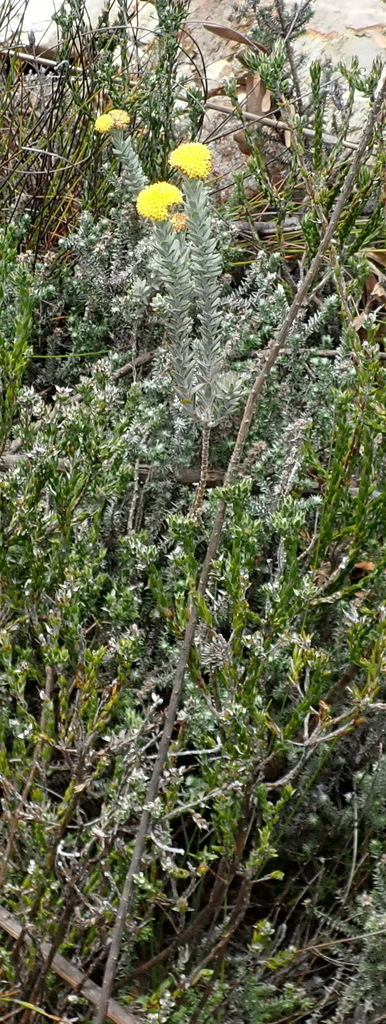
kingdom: Plantae
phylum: Tracheophyta
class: Magnoliopsida
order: Asterales
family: Asteraceae
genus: Athanasia
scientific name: Athanasia pachycephala
